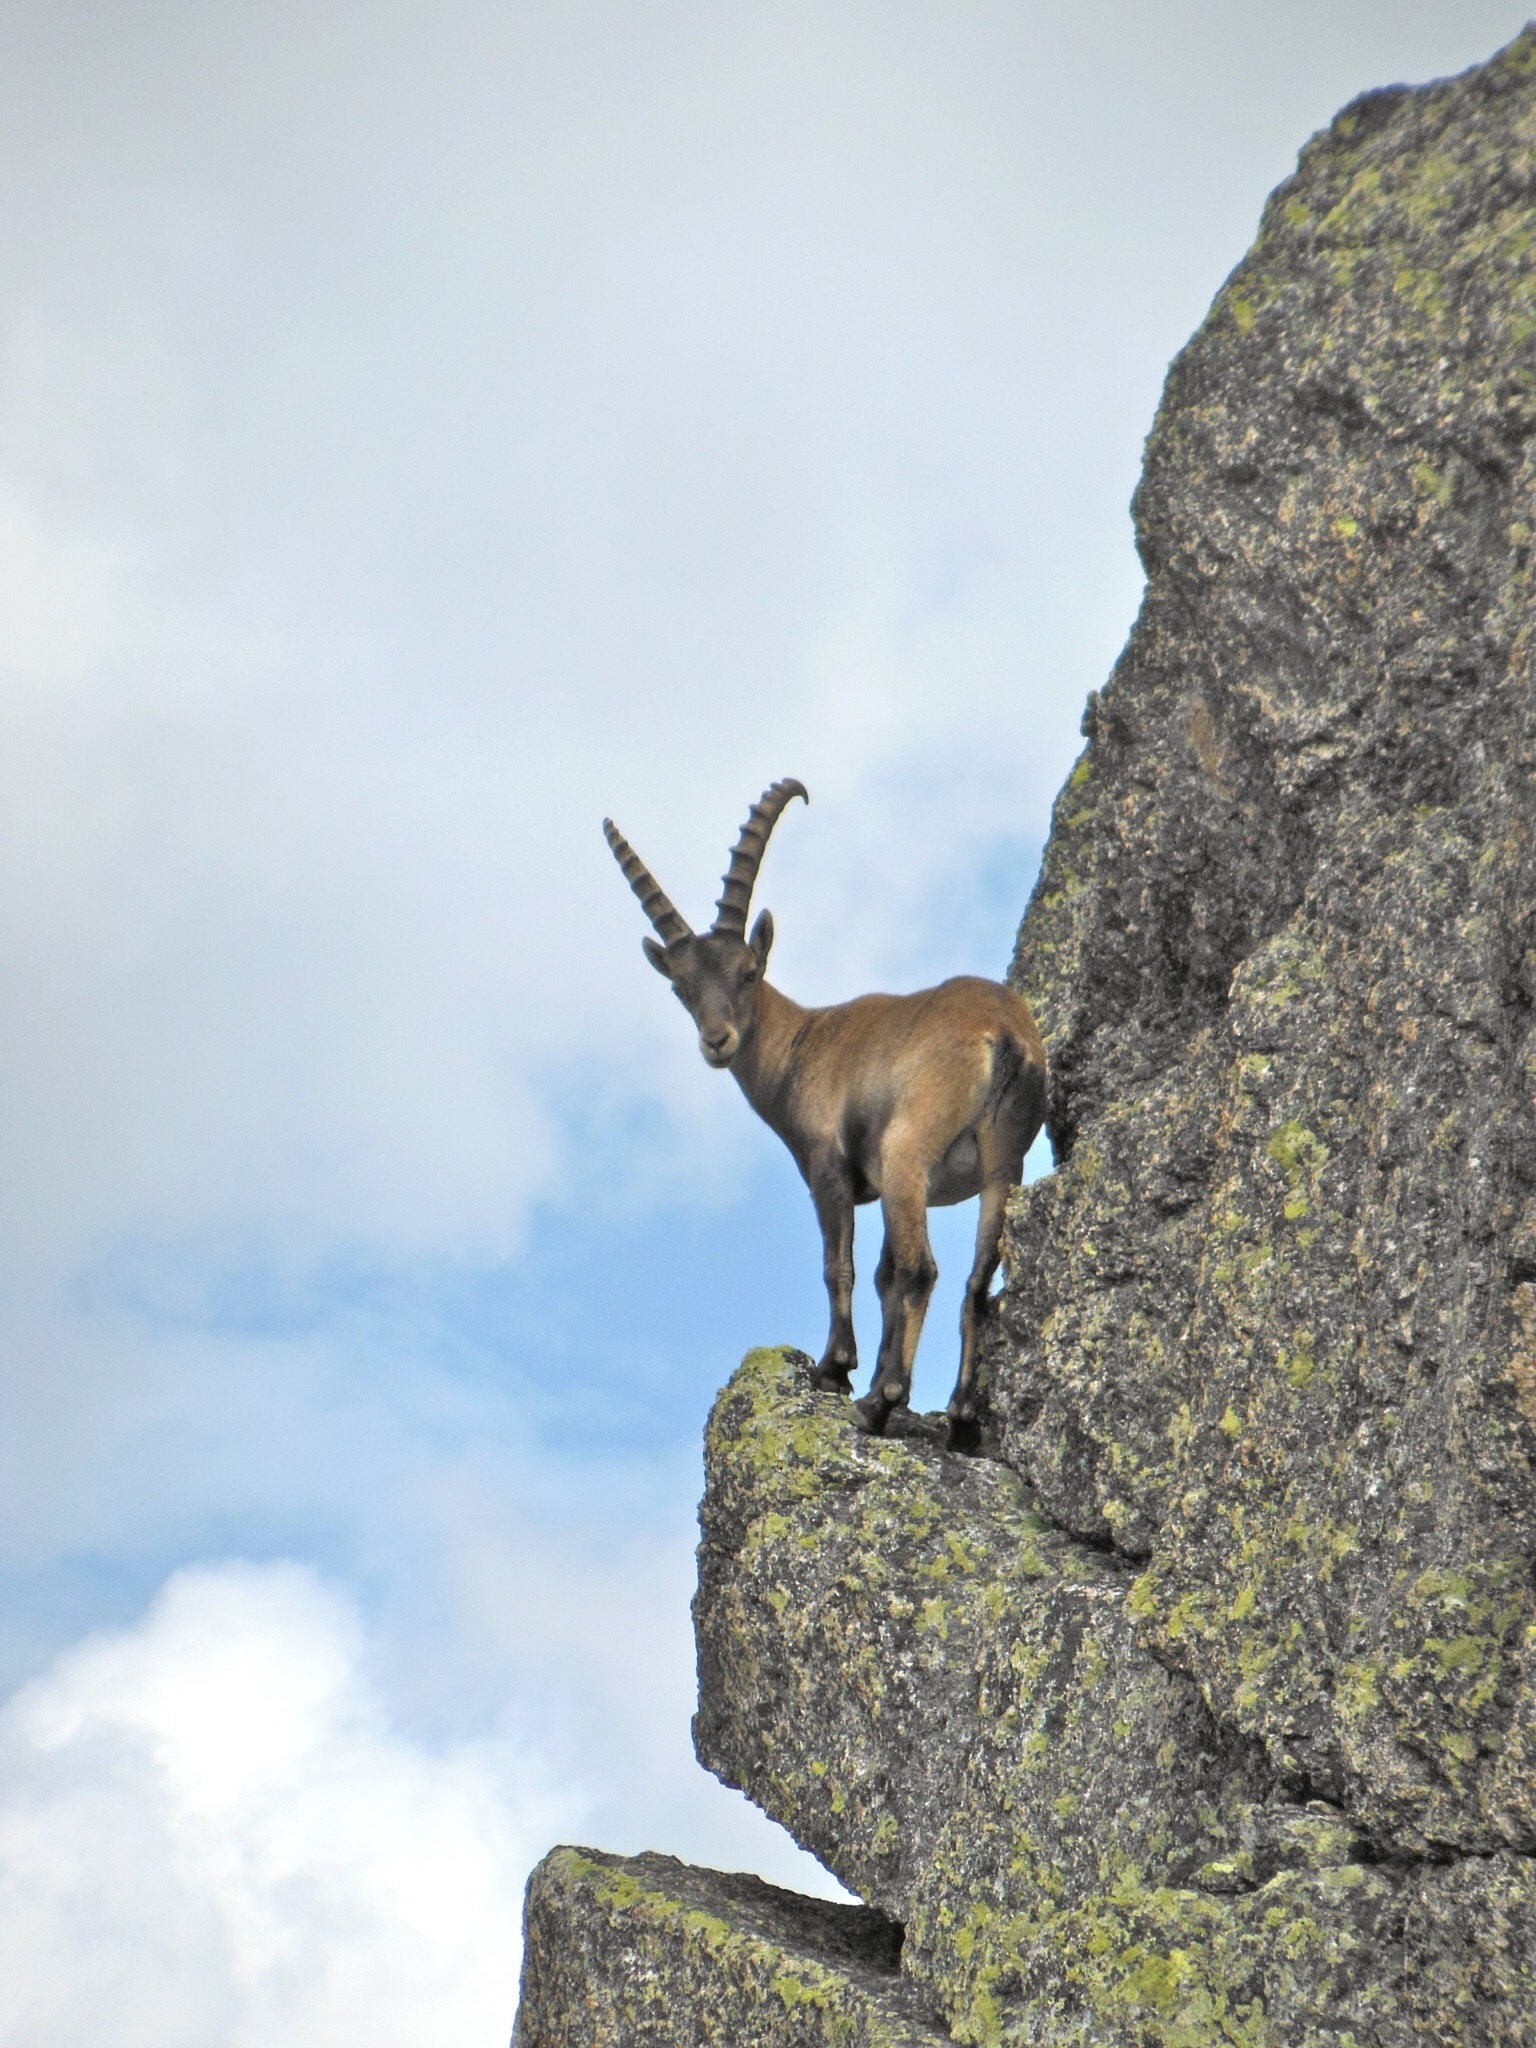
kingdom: Animalia
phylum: Chordata
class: Mammalia
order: Artiodactyla
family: Bovidae
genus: Capra
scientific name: Capra ibex
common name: Alpine ibex
